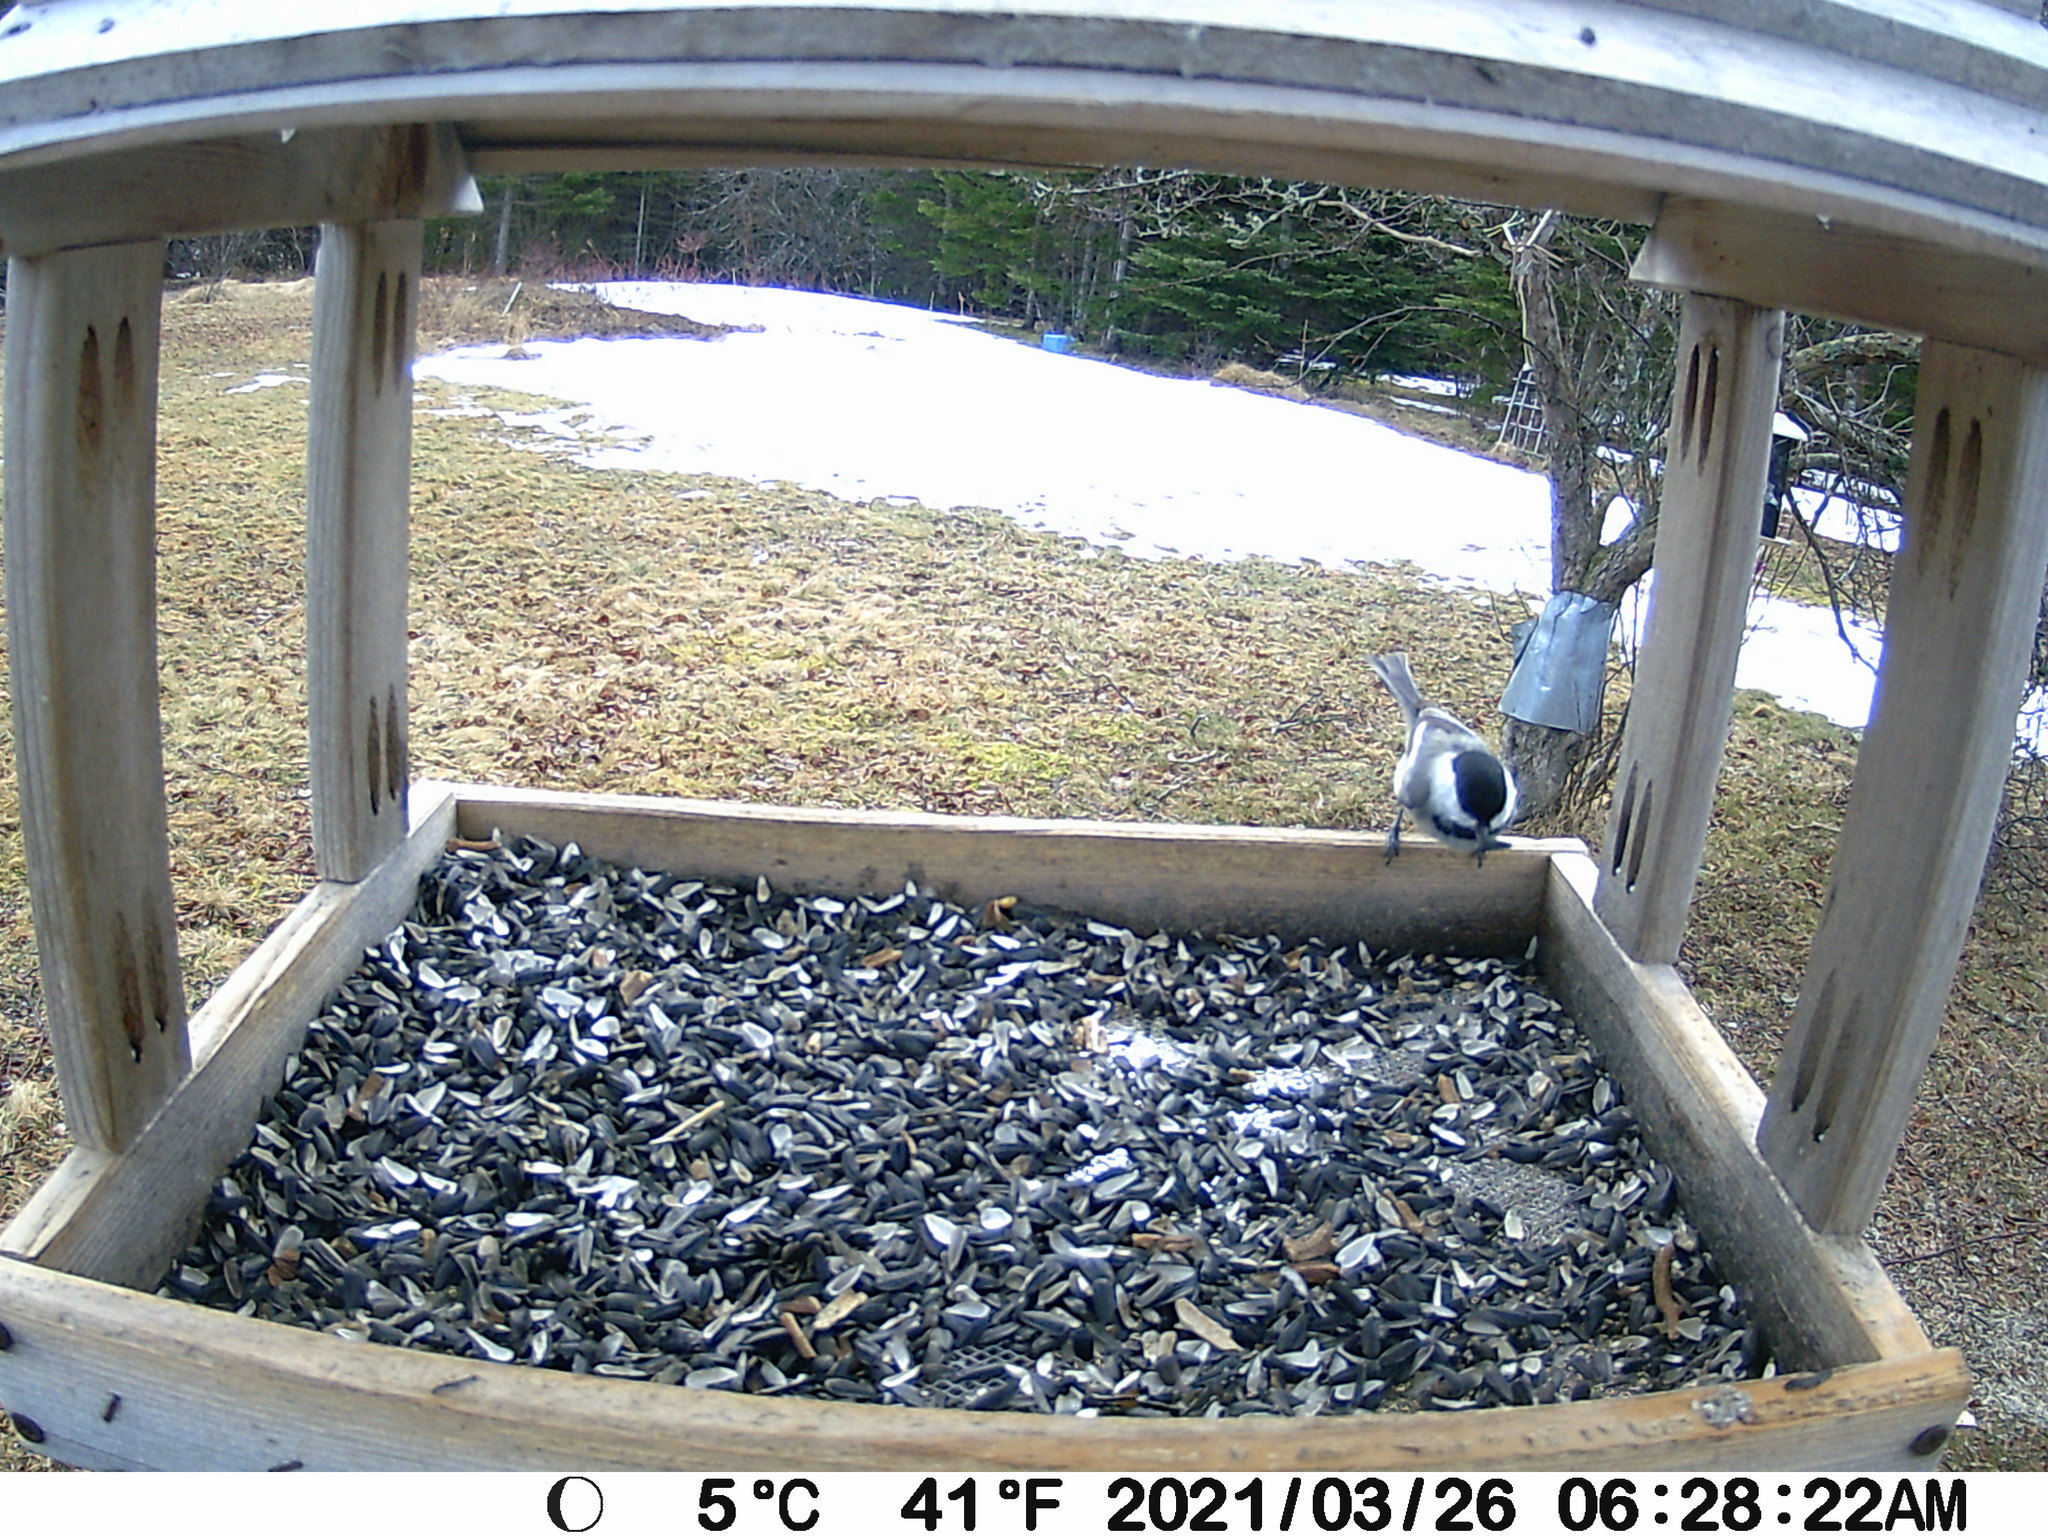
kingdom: Animalia
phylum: Chordata
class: Aves
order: Passeriformes
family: Paridae
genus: Poecile
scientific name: Poecile atricapillus
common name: Black-capped chickadee
